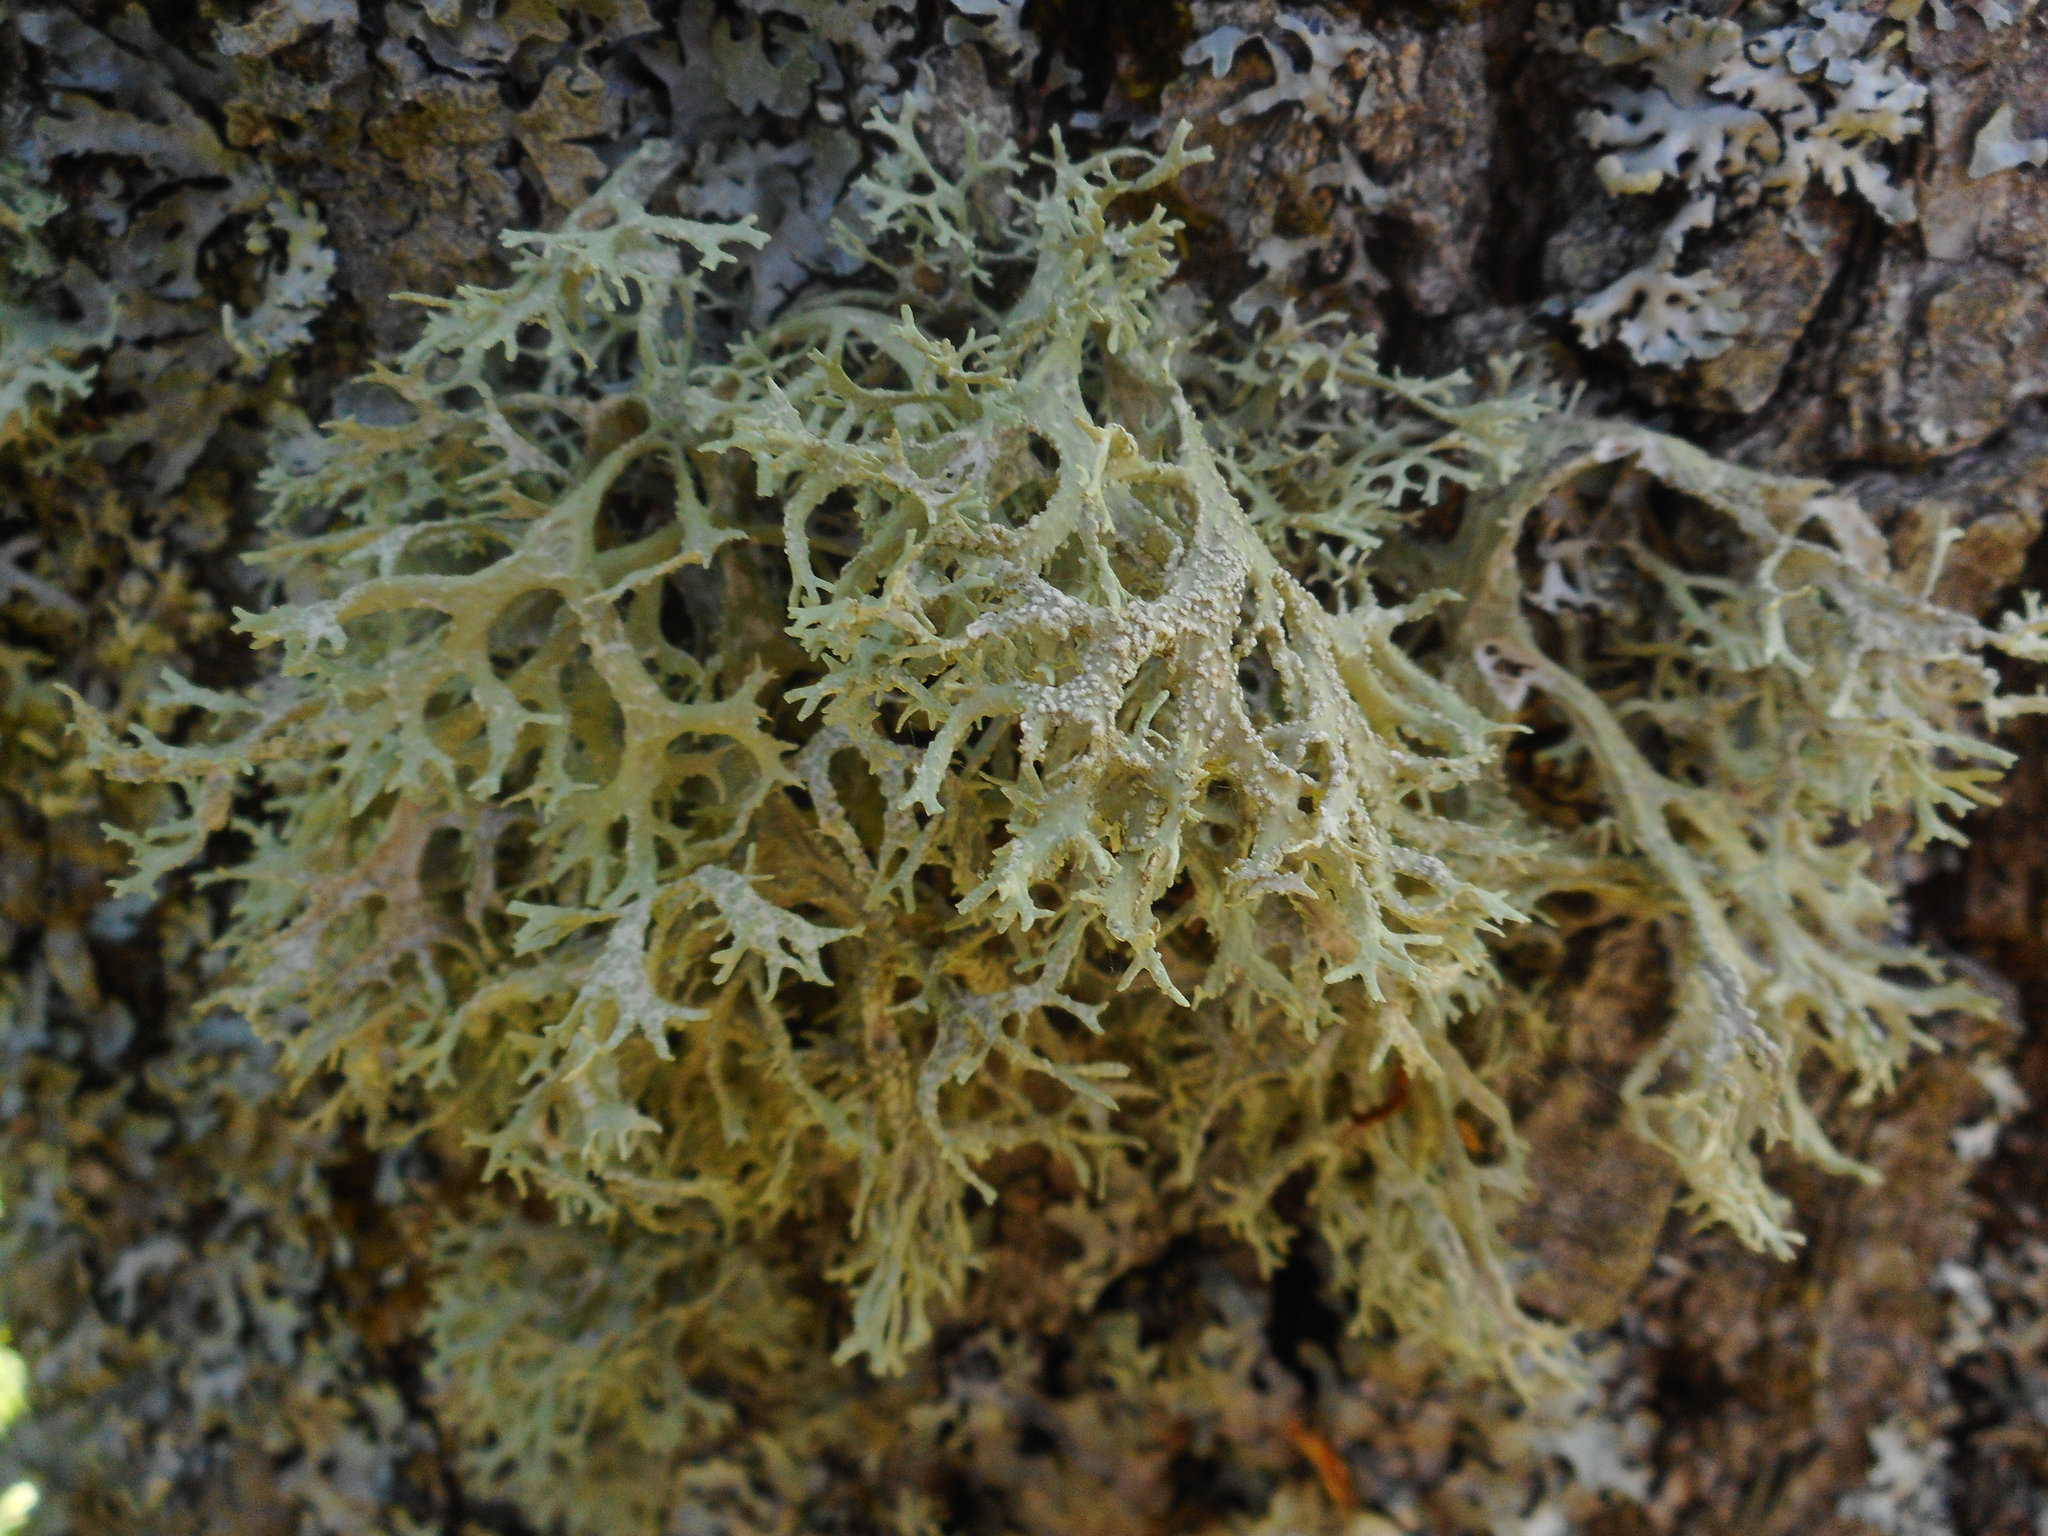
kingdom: Fungi
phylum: Ascomycota
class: Lecanoromycetes
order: Lecanorales
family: Parmeliaceae
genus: Evernia
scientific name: Evernia prunastri
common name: Oak moss
